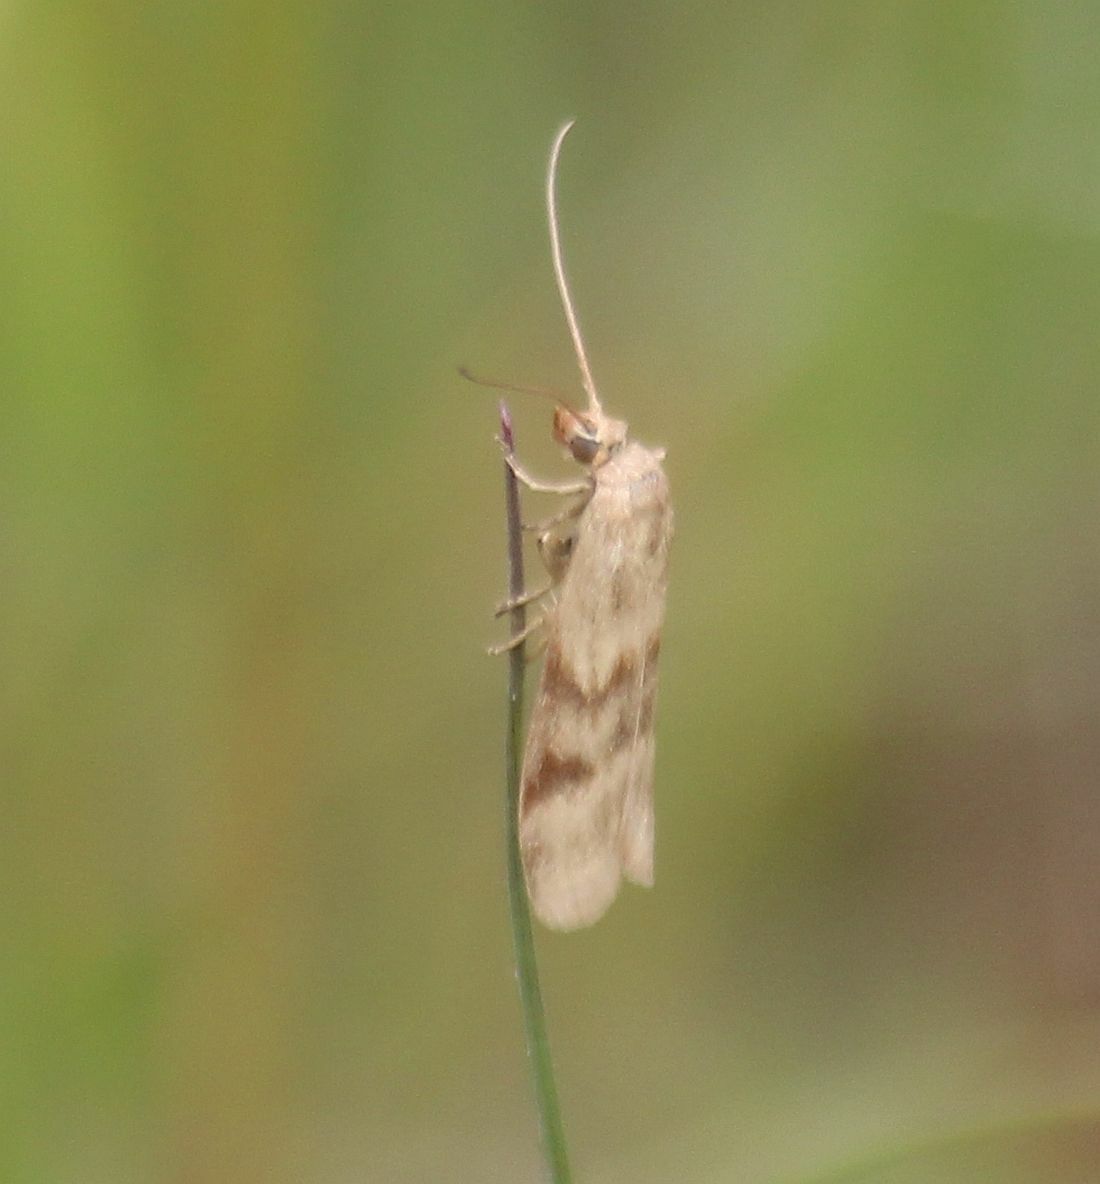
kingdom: Animalia
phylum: Arthropoda
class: Insecta
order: Lepidoptera
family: Pyralidae
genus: Homoeosoma
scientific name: Homoeosoma sinuella
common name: Twin-barred knot-horn
